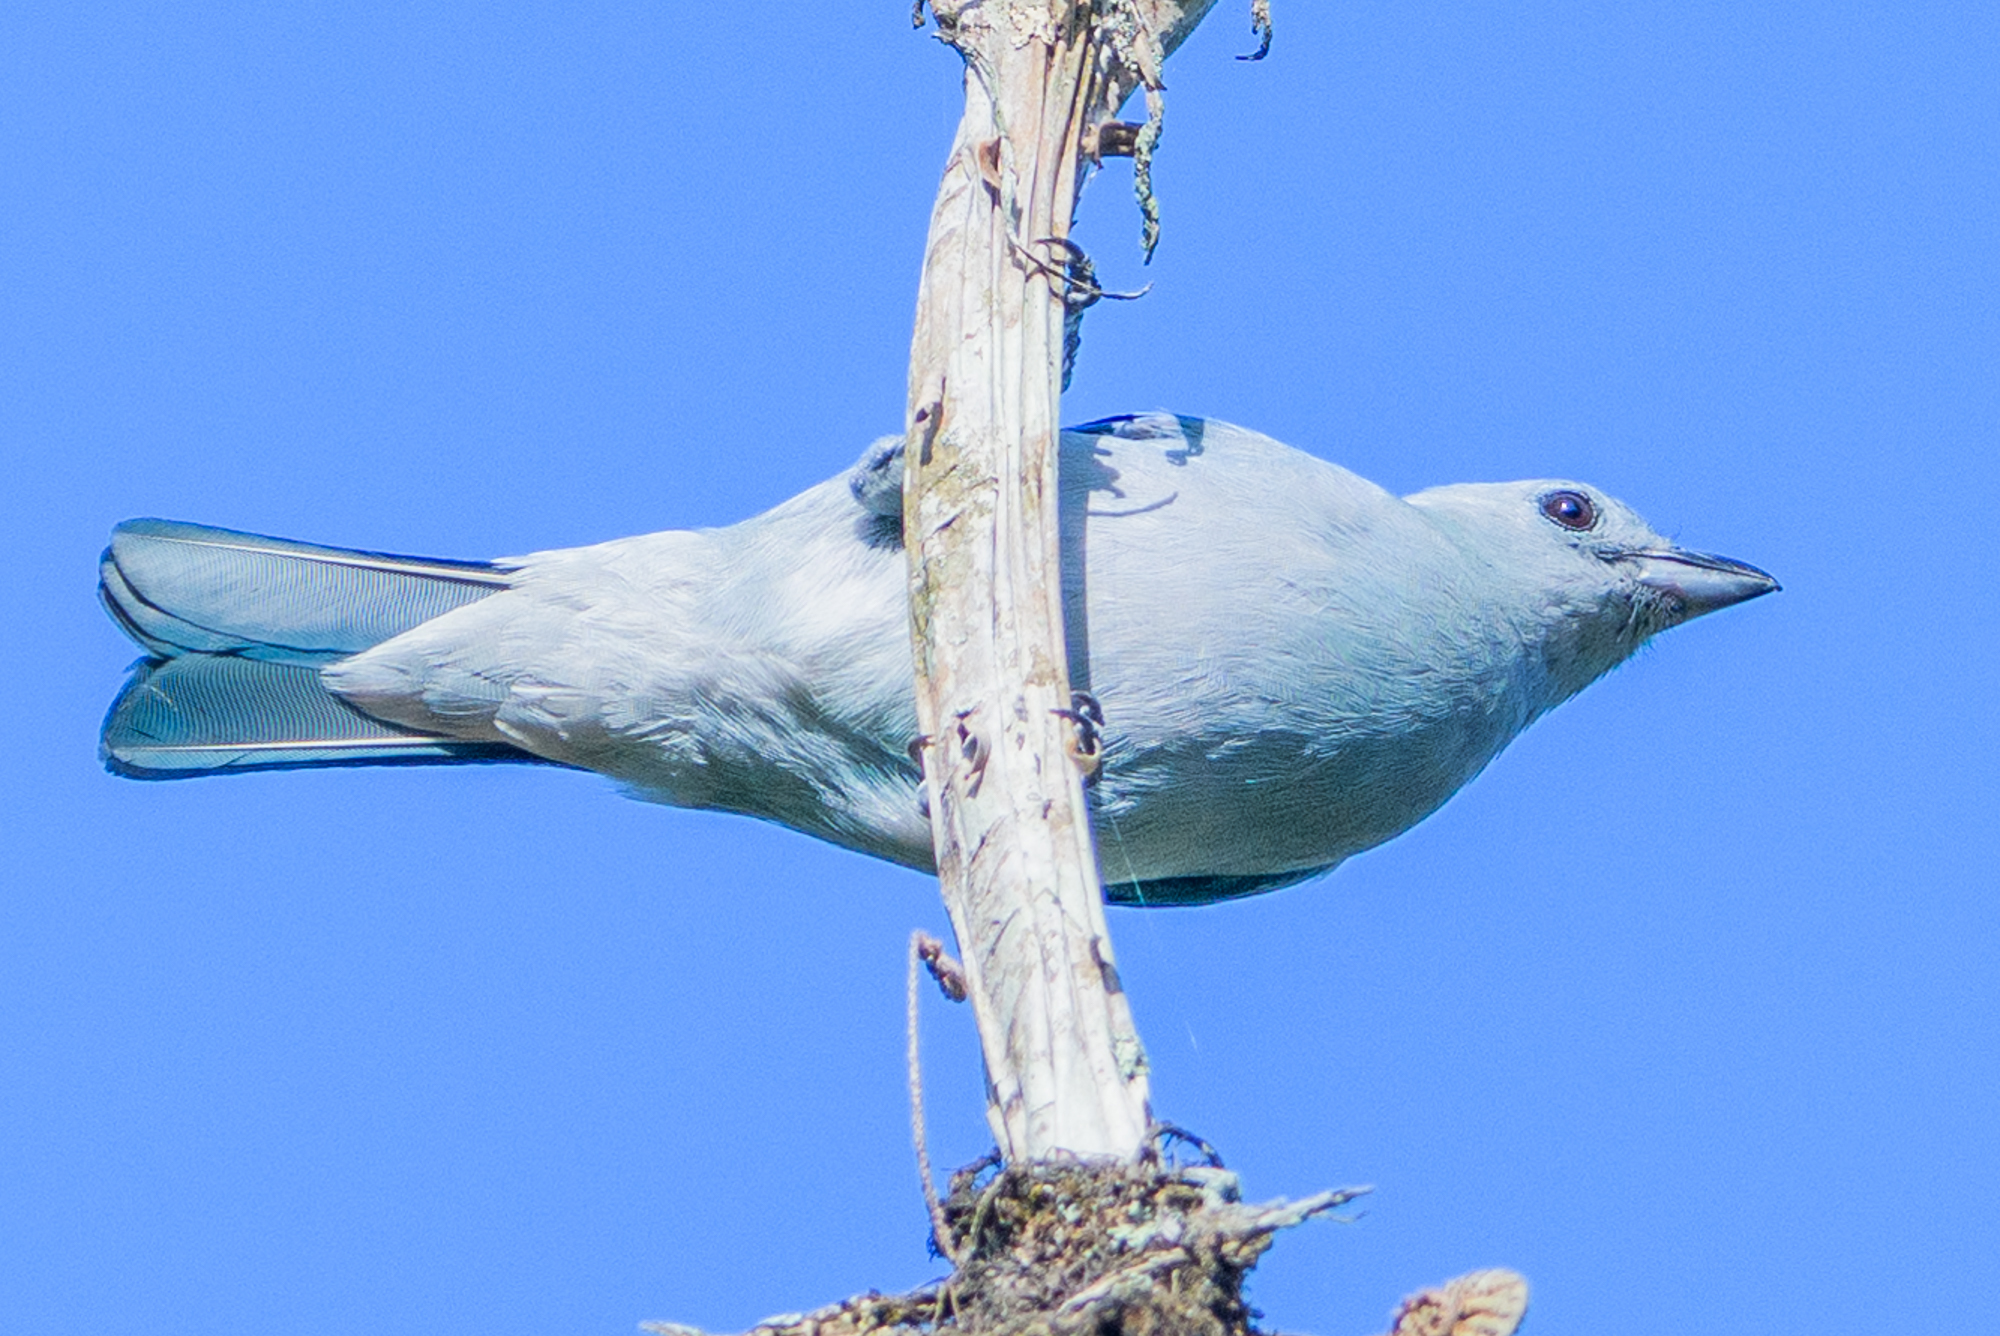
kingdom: Animalia
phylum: Chordata
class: Aves
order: Passeriformes
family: Thraupidae
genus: Thraupis
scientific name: Thraupis episcopus
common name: Blue-grey tanager
